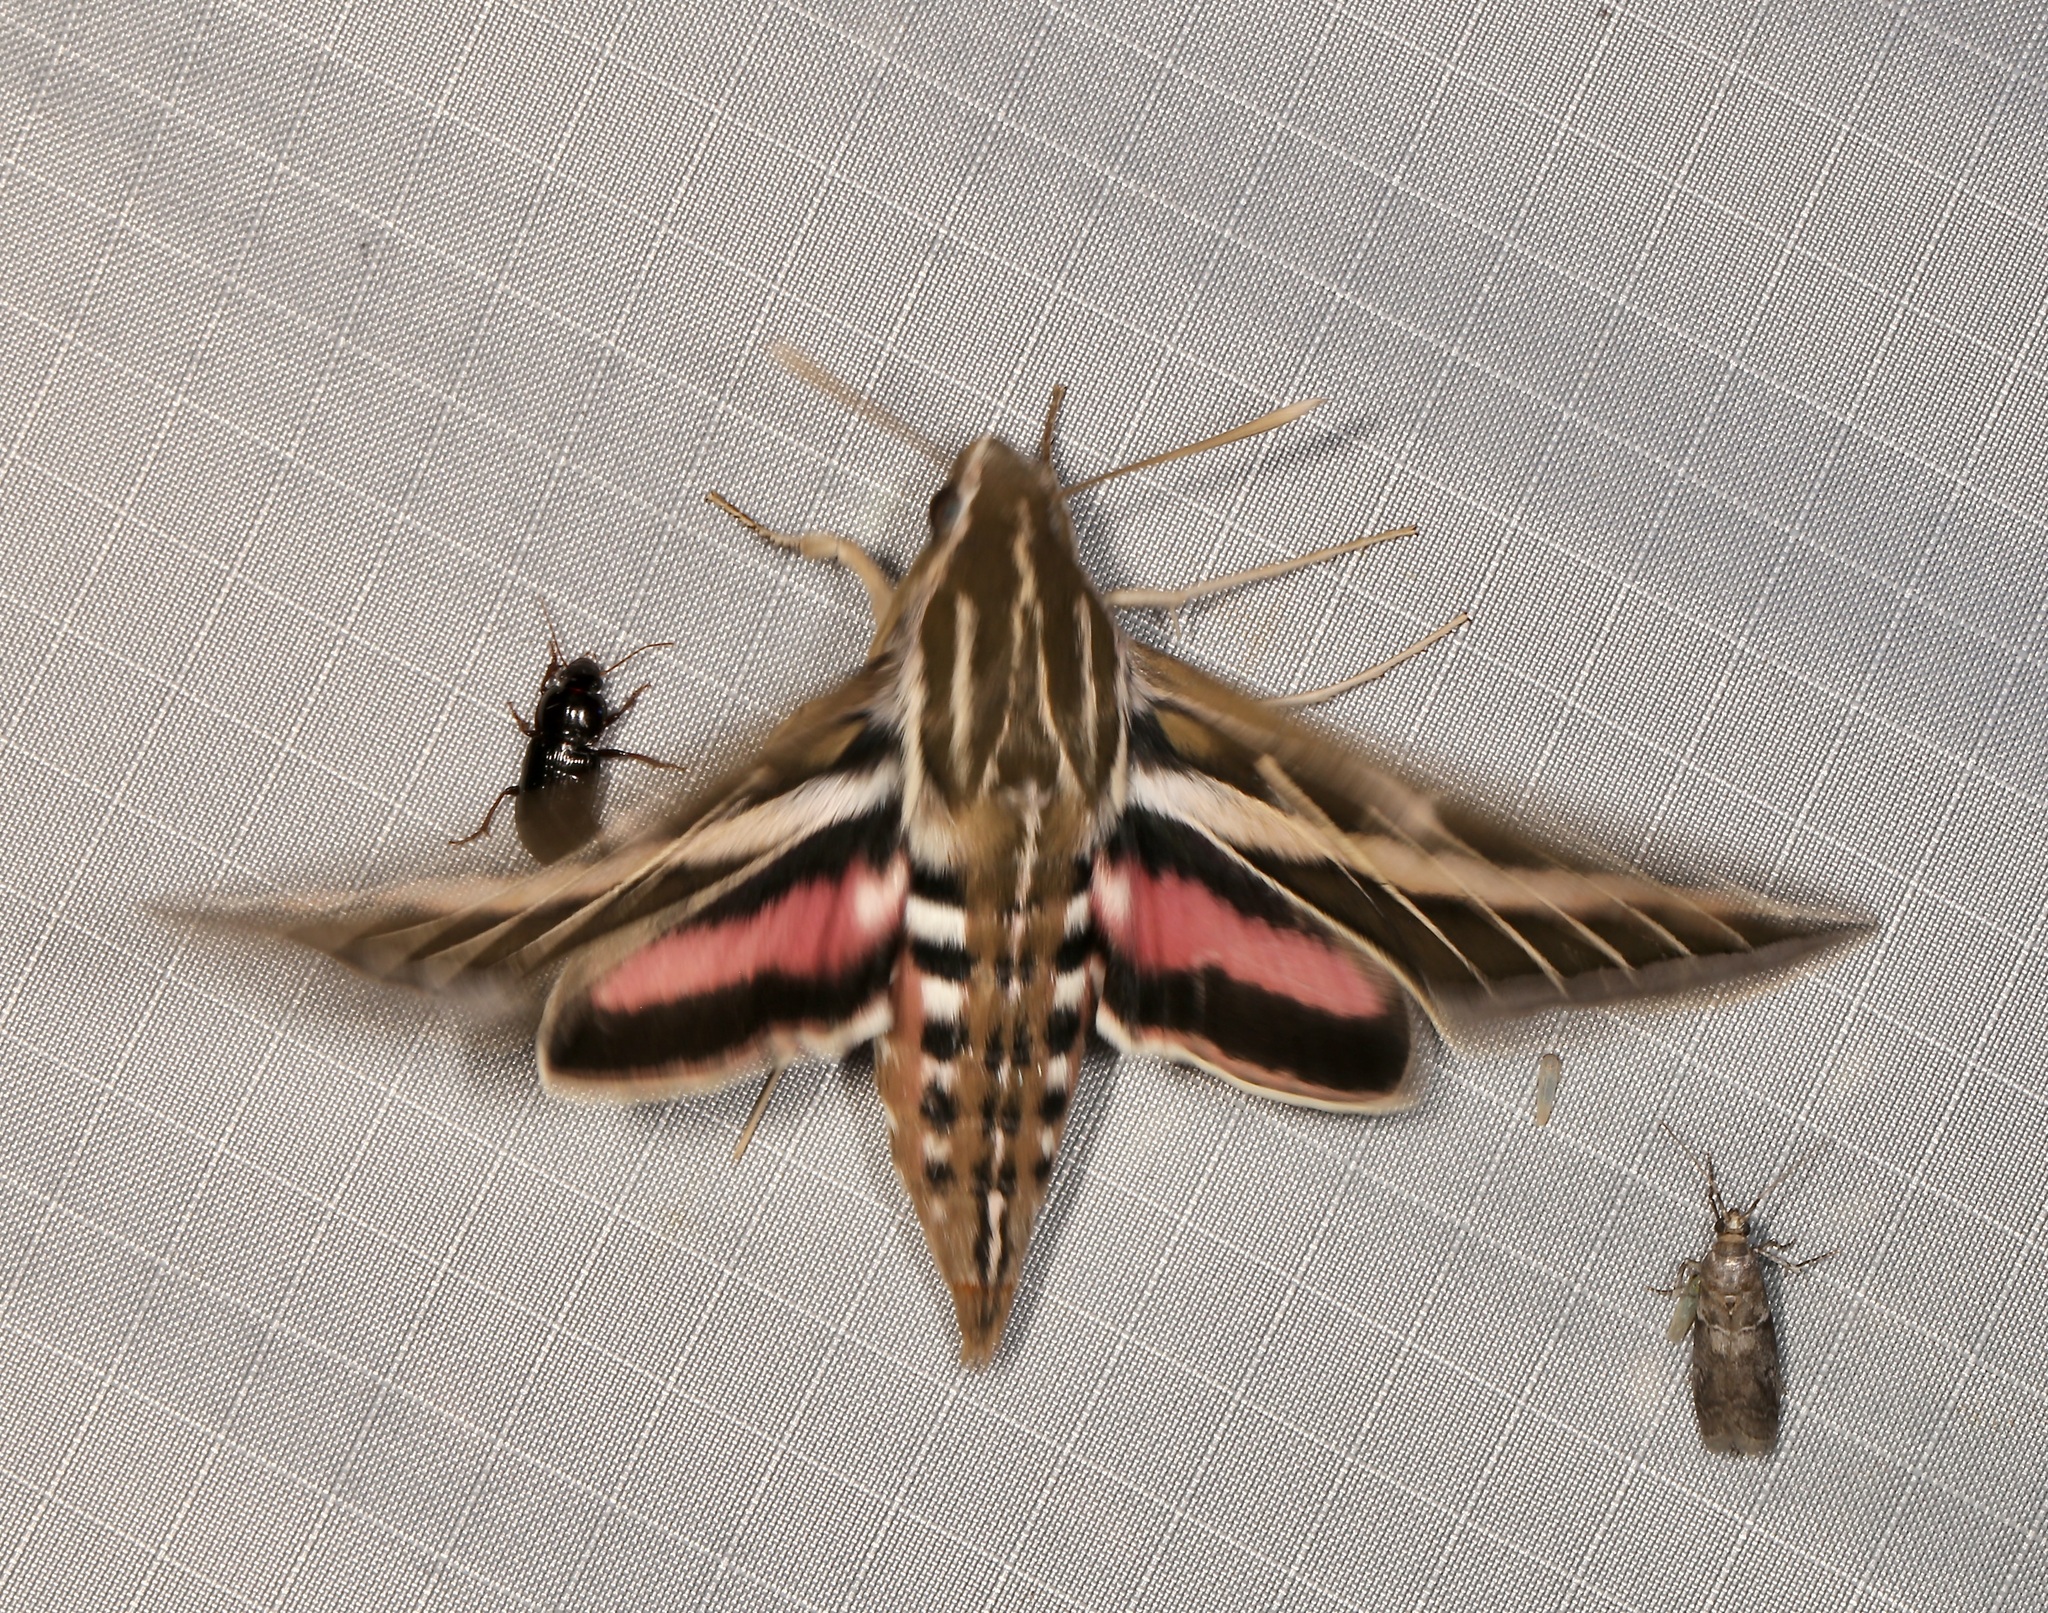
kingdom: Animalia
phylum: Arthropoda
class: Insecta
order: Lepidoptera
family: Sphingidae
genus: Hyles
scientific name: Hyles lineata
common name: White-lined sphinx
